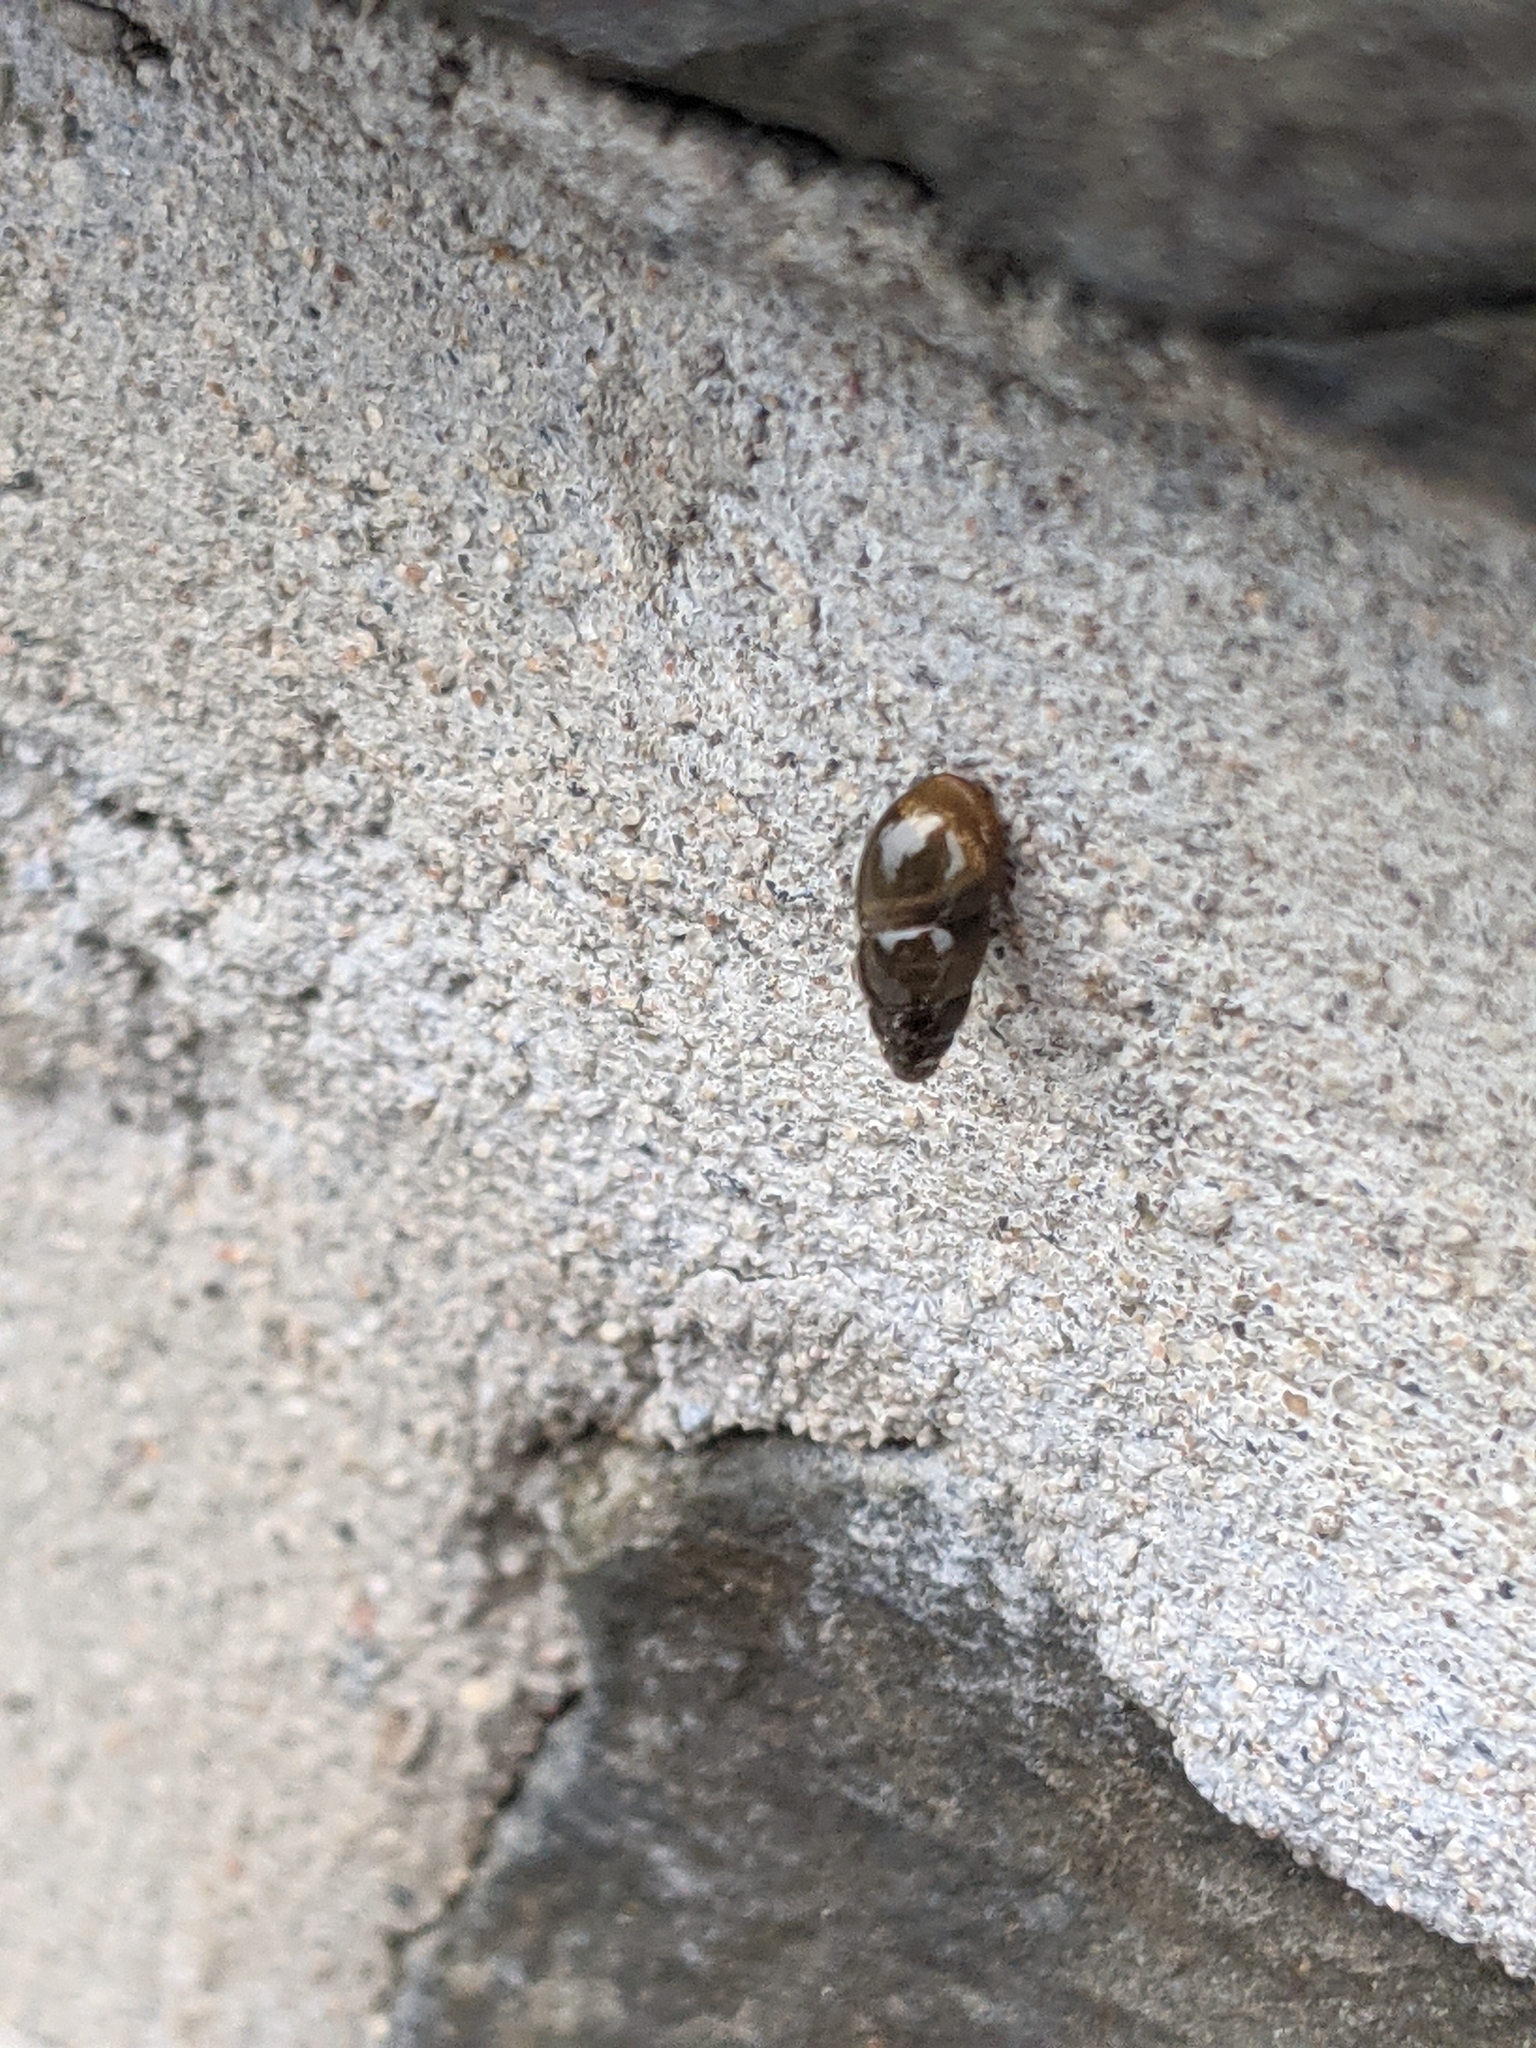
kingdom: Animalia
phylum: Mollusca
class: Gastropoda
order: Stylommatophora
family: Cochlicopidae
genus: Cochlicopa
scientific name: Cochlicopa lubrica
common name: Glossy pillar snail
